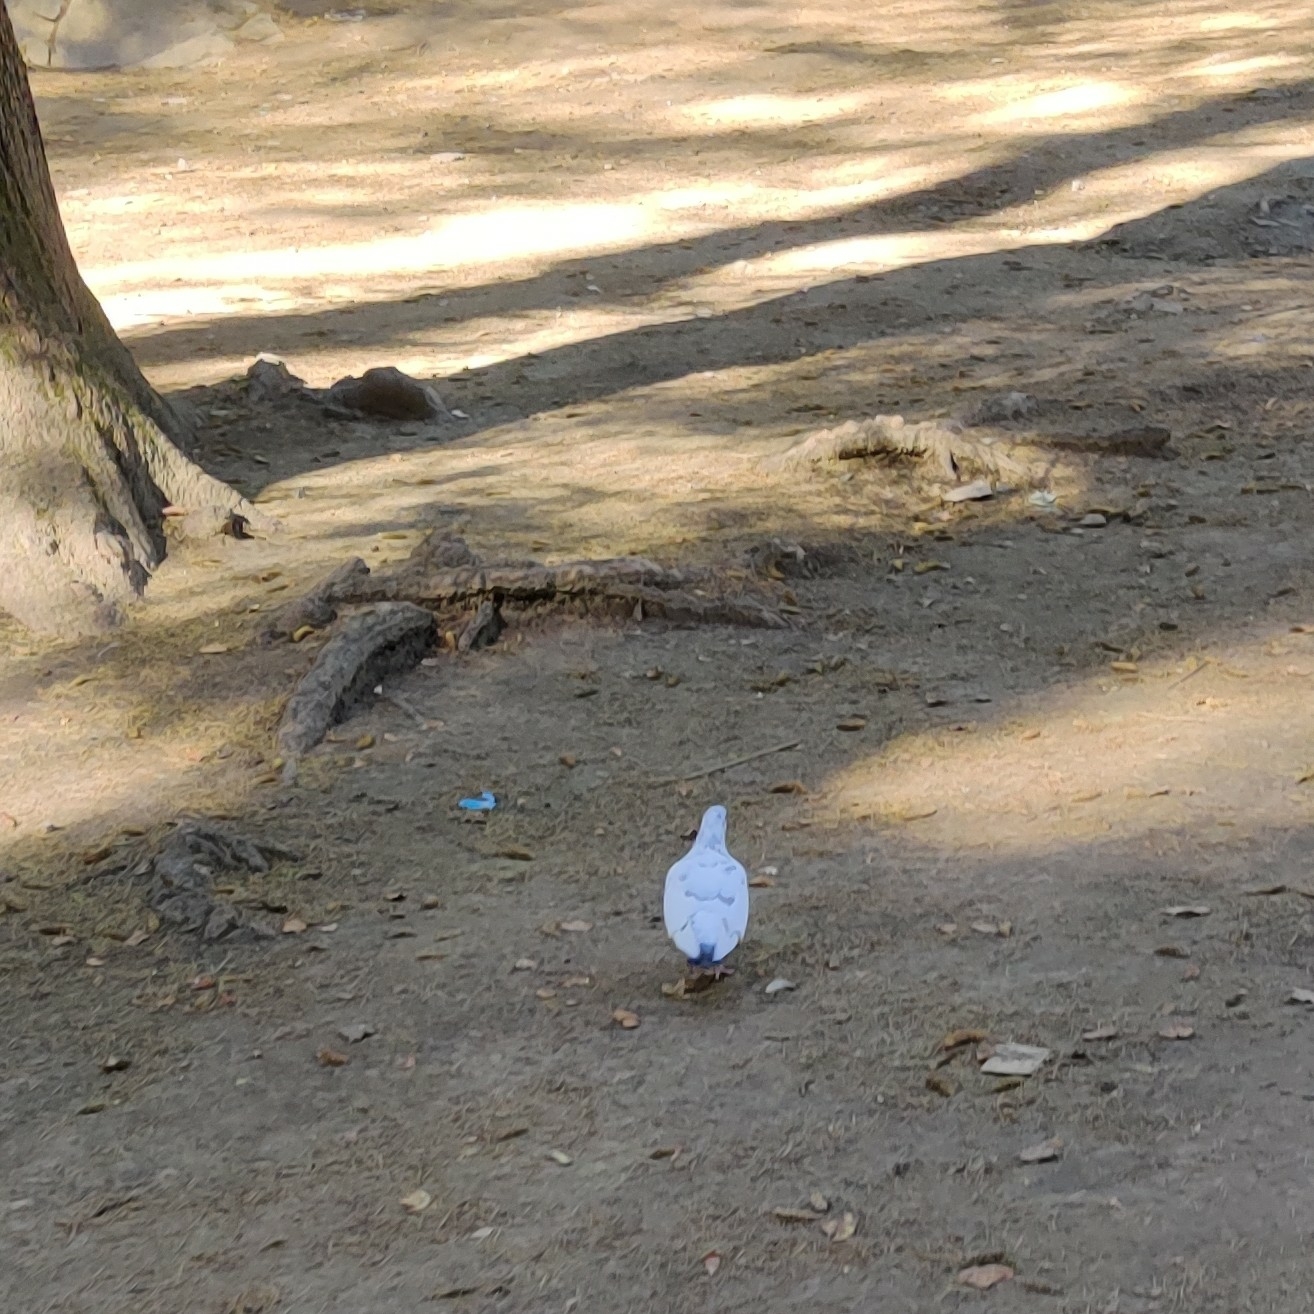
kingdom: Animalia
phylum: Chordata
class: Aves
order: Columbiformes
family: Columbidae
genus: Columba
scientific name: Columba livia
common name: Rock pigeon
